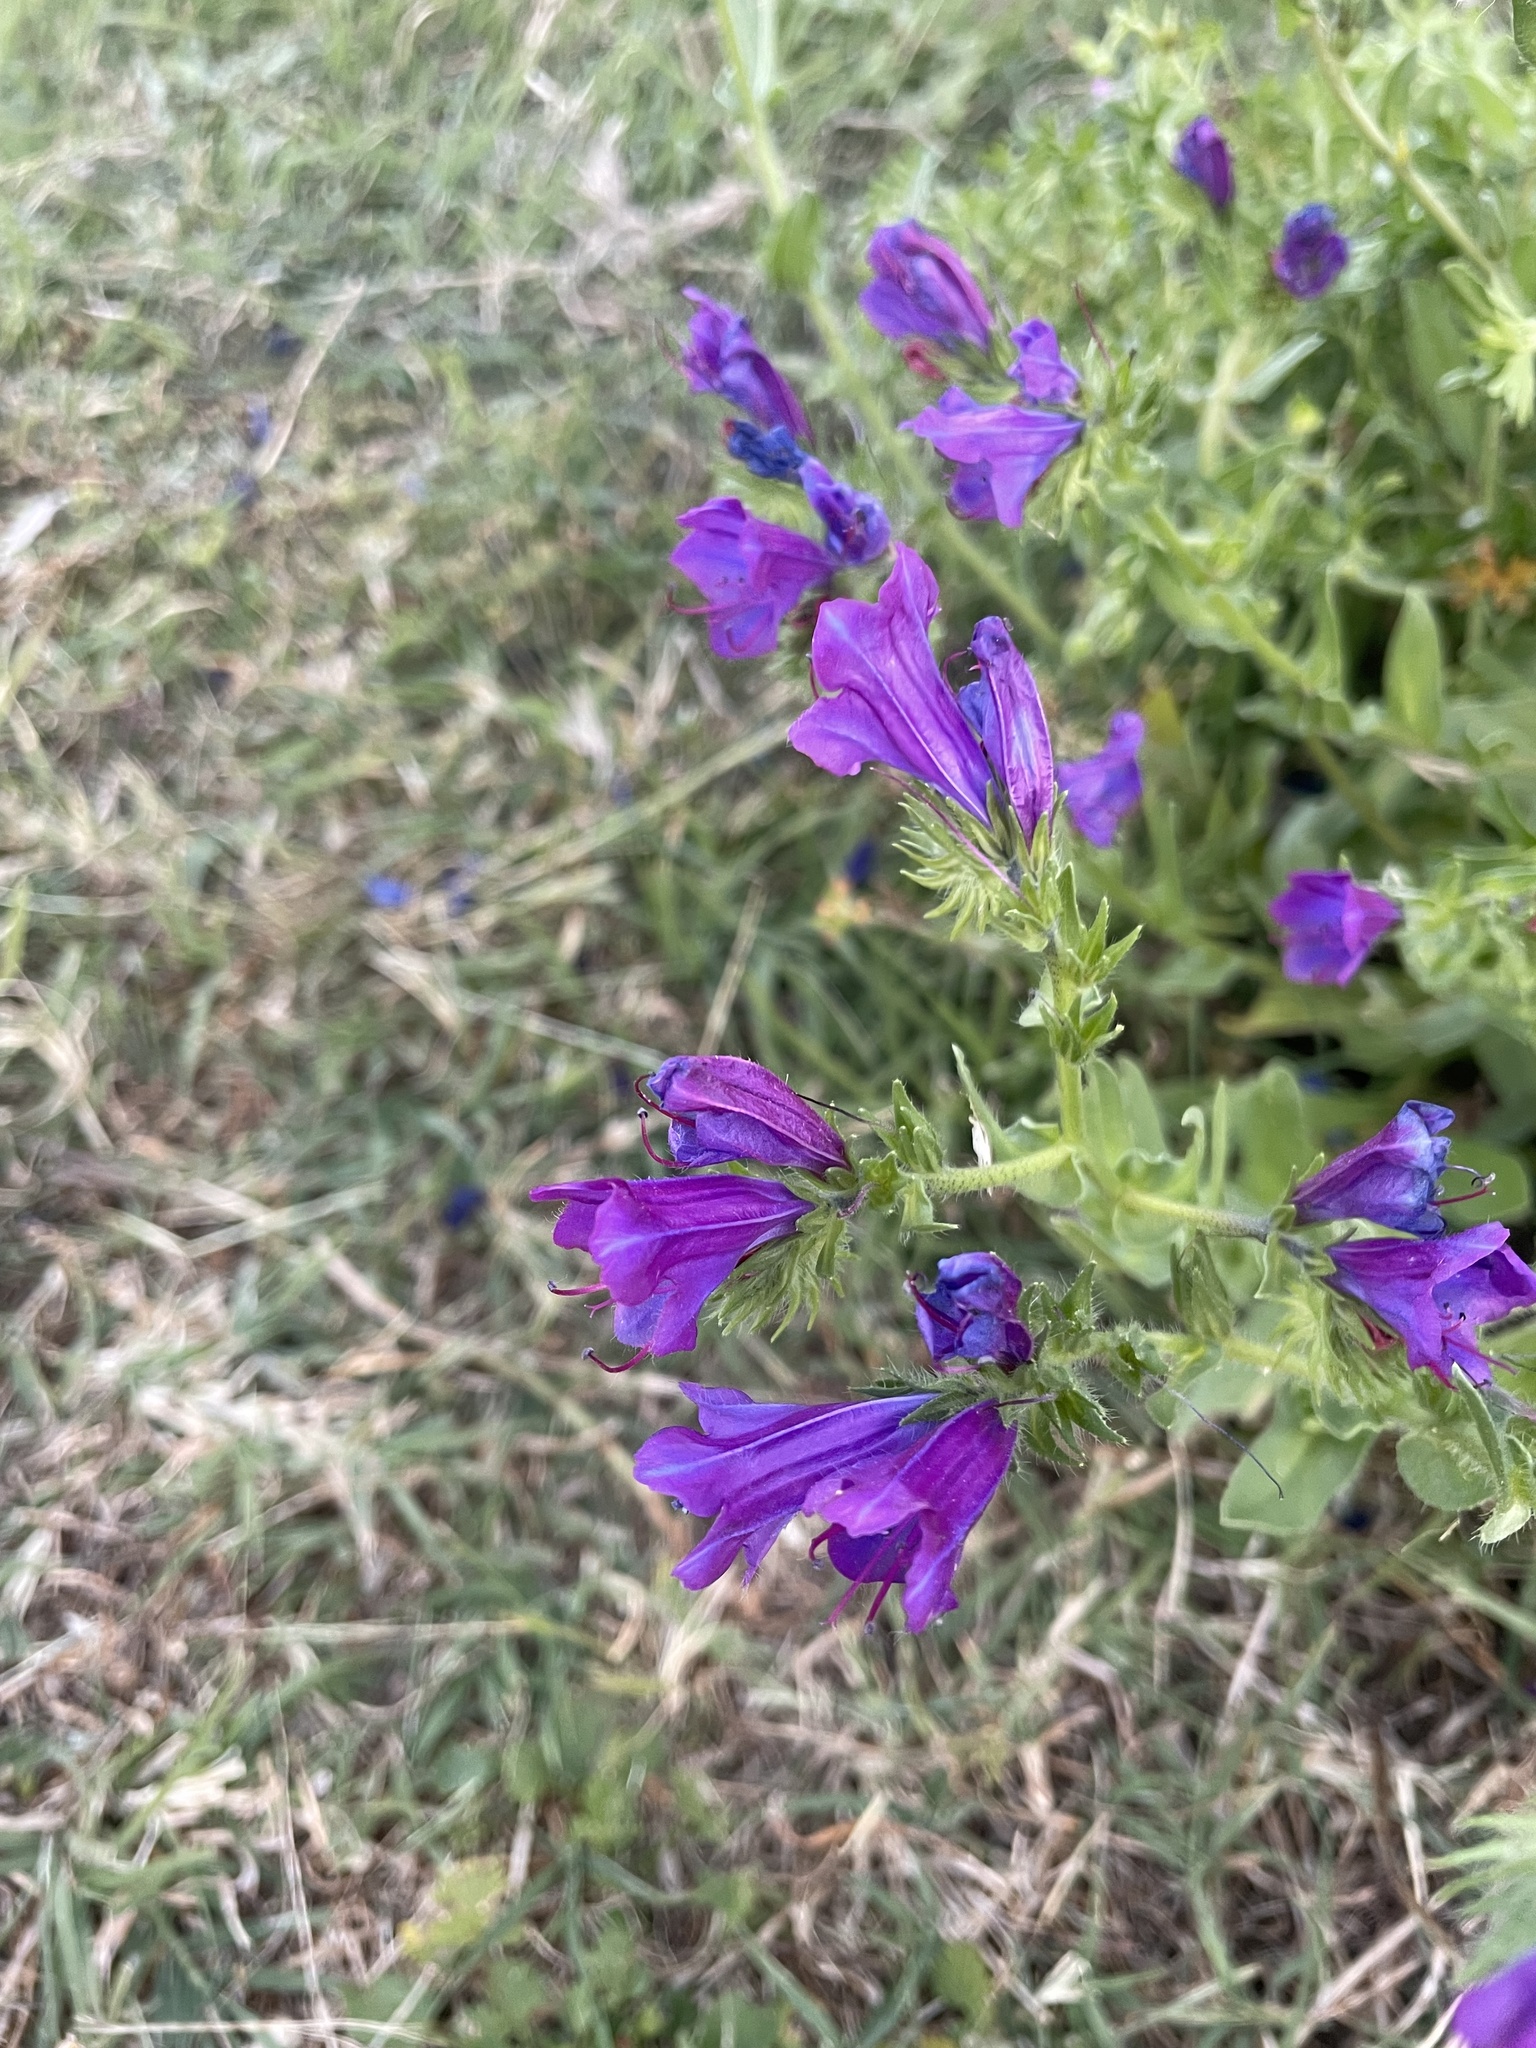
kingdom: Plantae
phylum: Tracheophyta
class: Magnoliopsida
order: Boraginales
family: Boraginaceae
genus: Echium
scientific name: Echium plantagineum
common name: Purple viper's-bugloss
